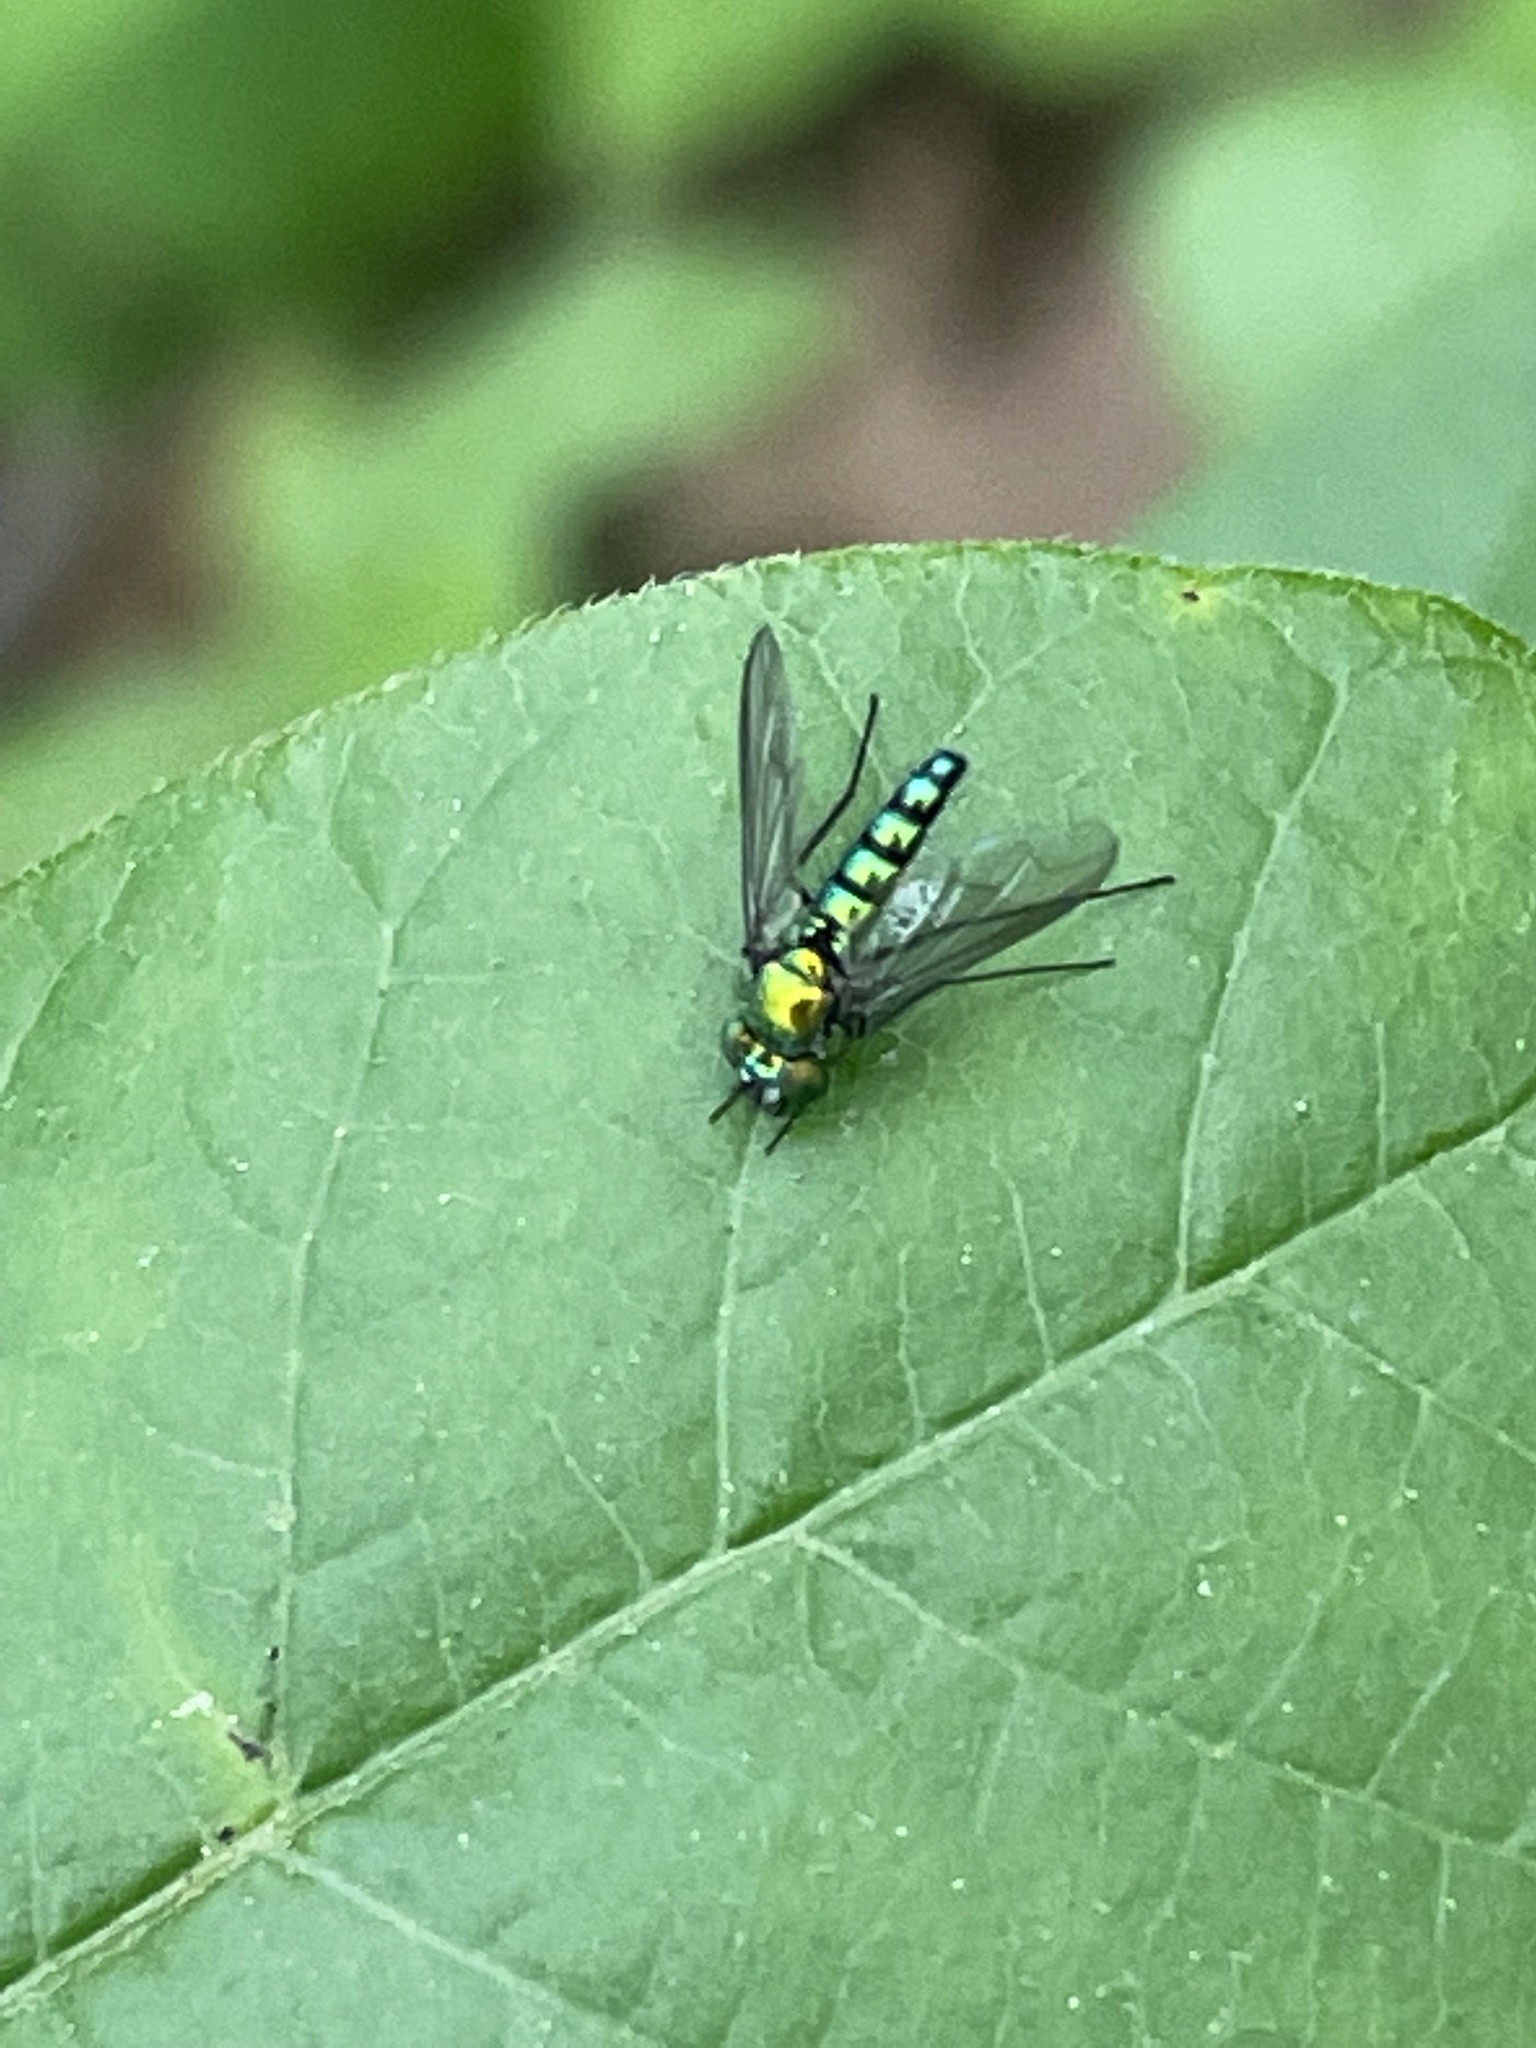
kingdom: Animalia
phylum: Arthropoda
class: Insecta
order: Diptera
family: Dolichopodidae
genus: Condylostylus
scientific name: Condylostylus longicornis
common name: Long-legged fly
